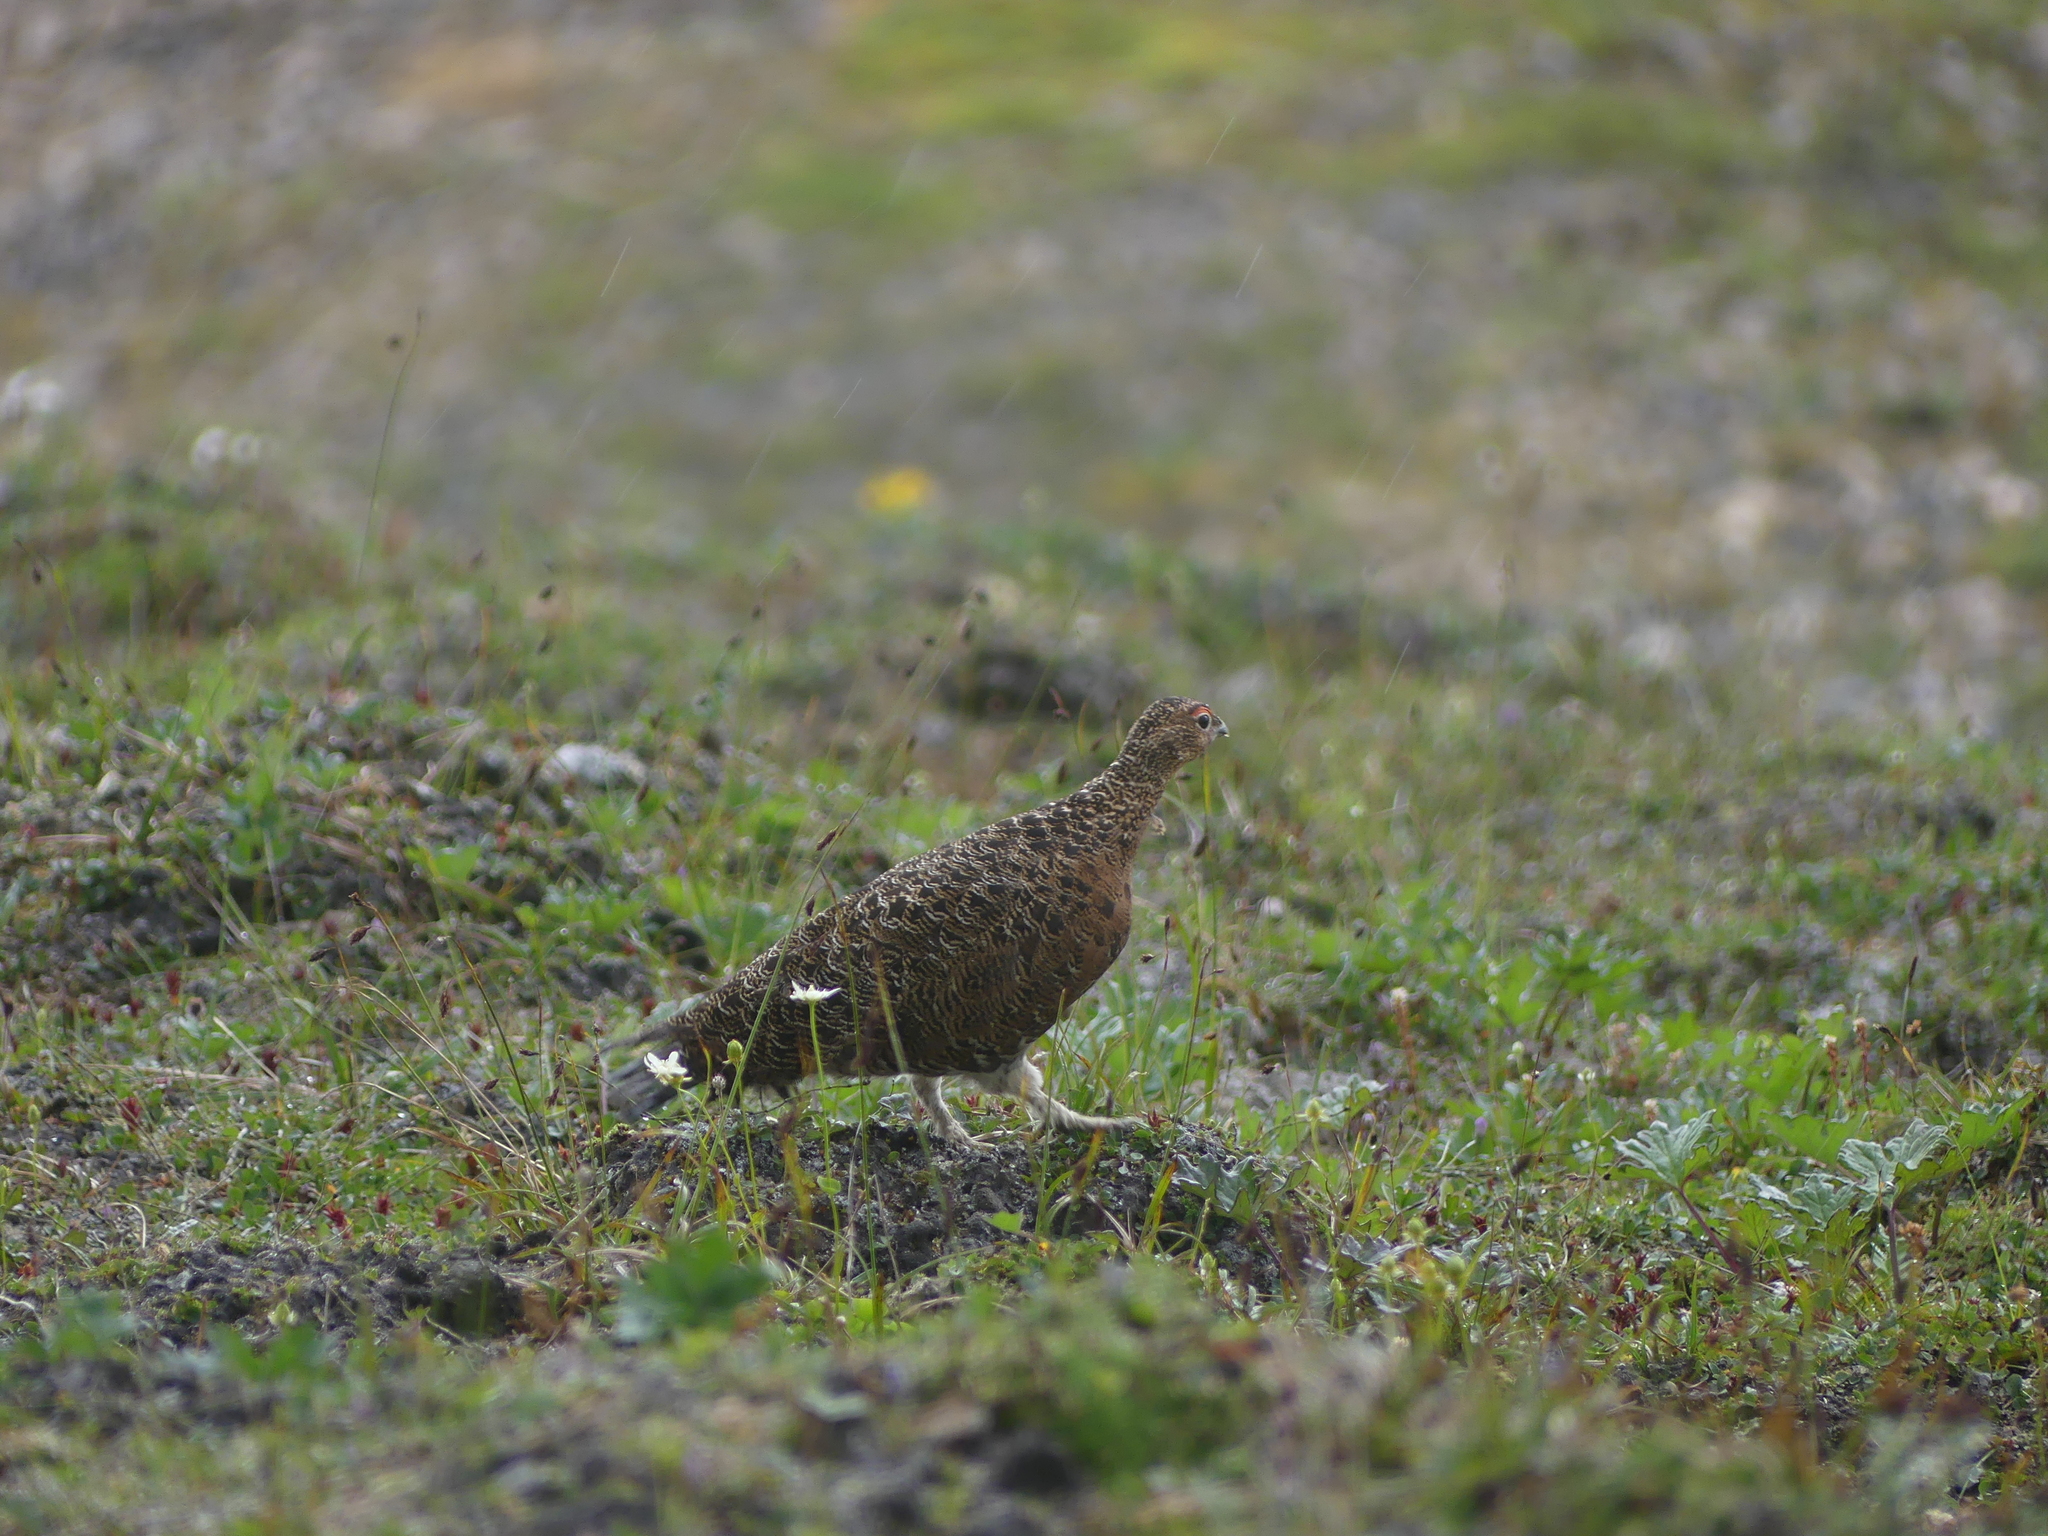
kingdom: Animalia
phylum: Chordata
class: Aves
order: Galliformes
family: Phasianidae
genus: Lagopus
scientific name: Lagopus lagopus
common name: Willow ptarmigan
